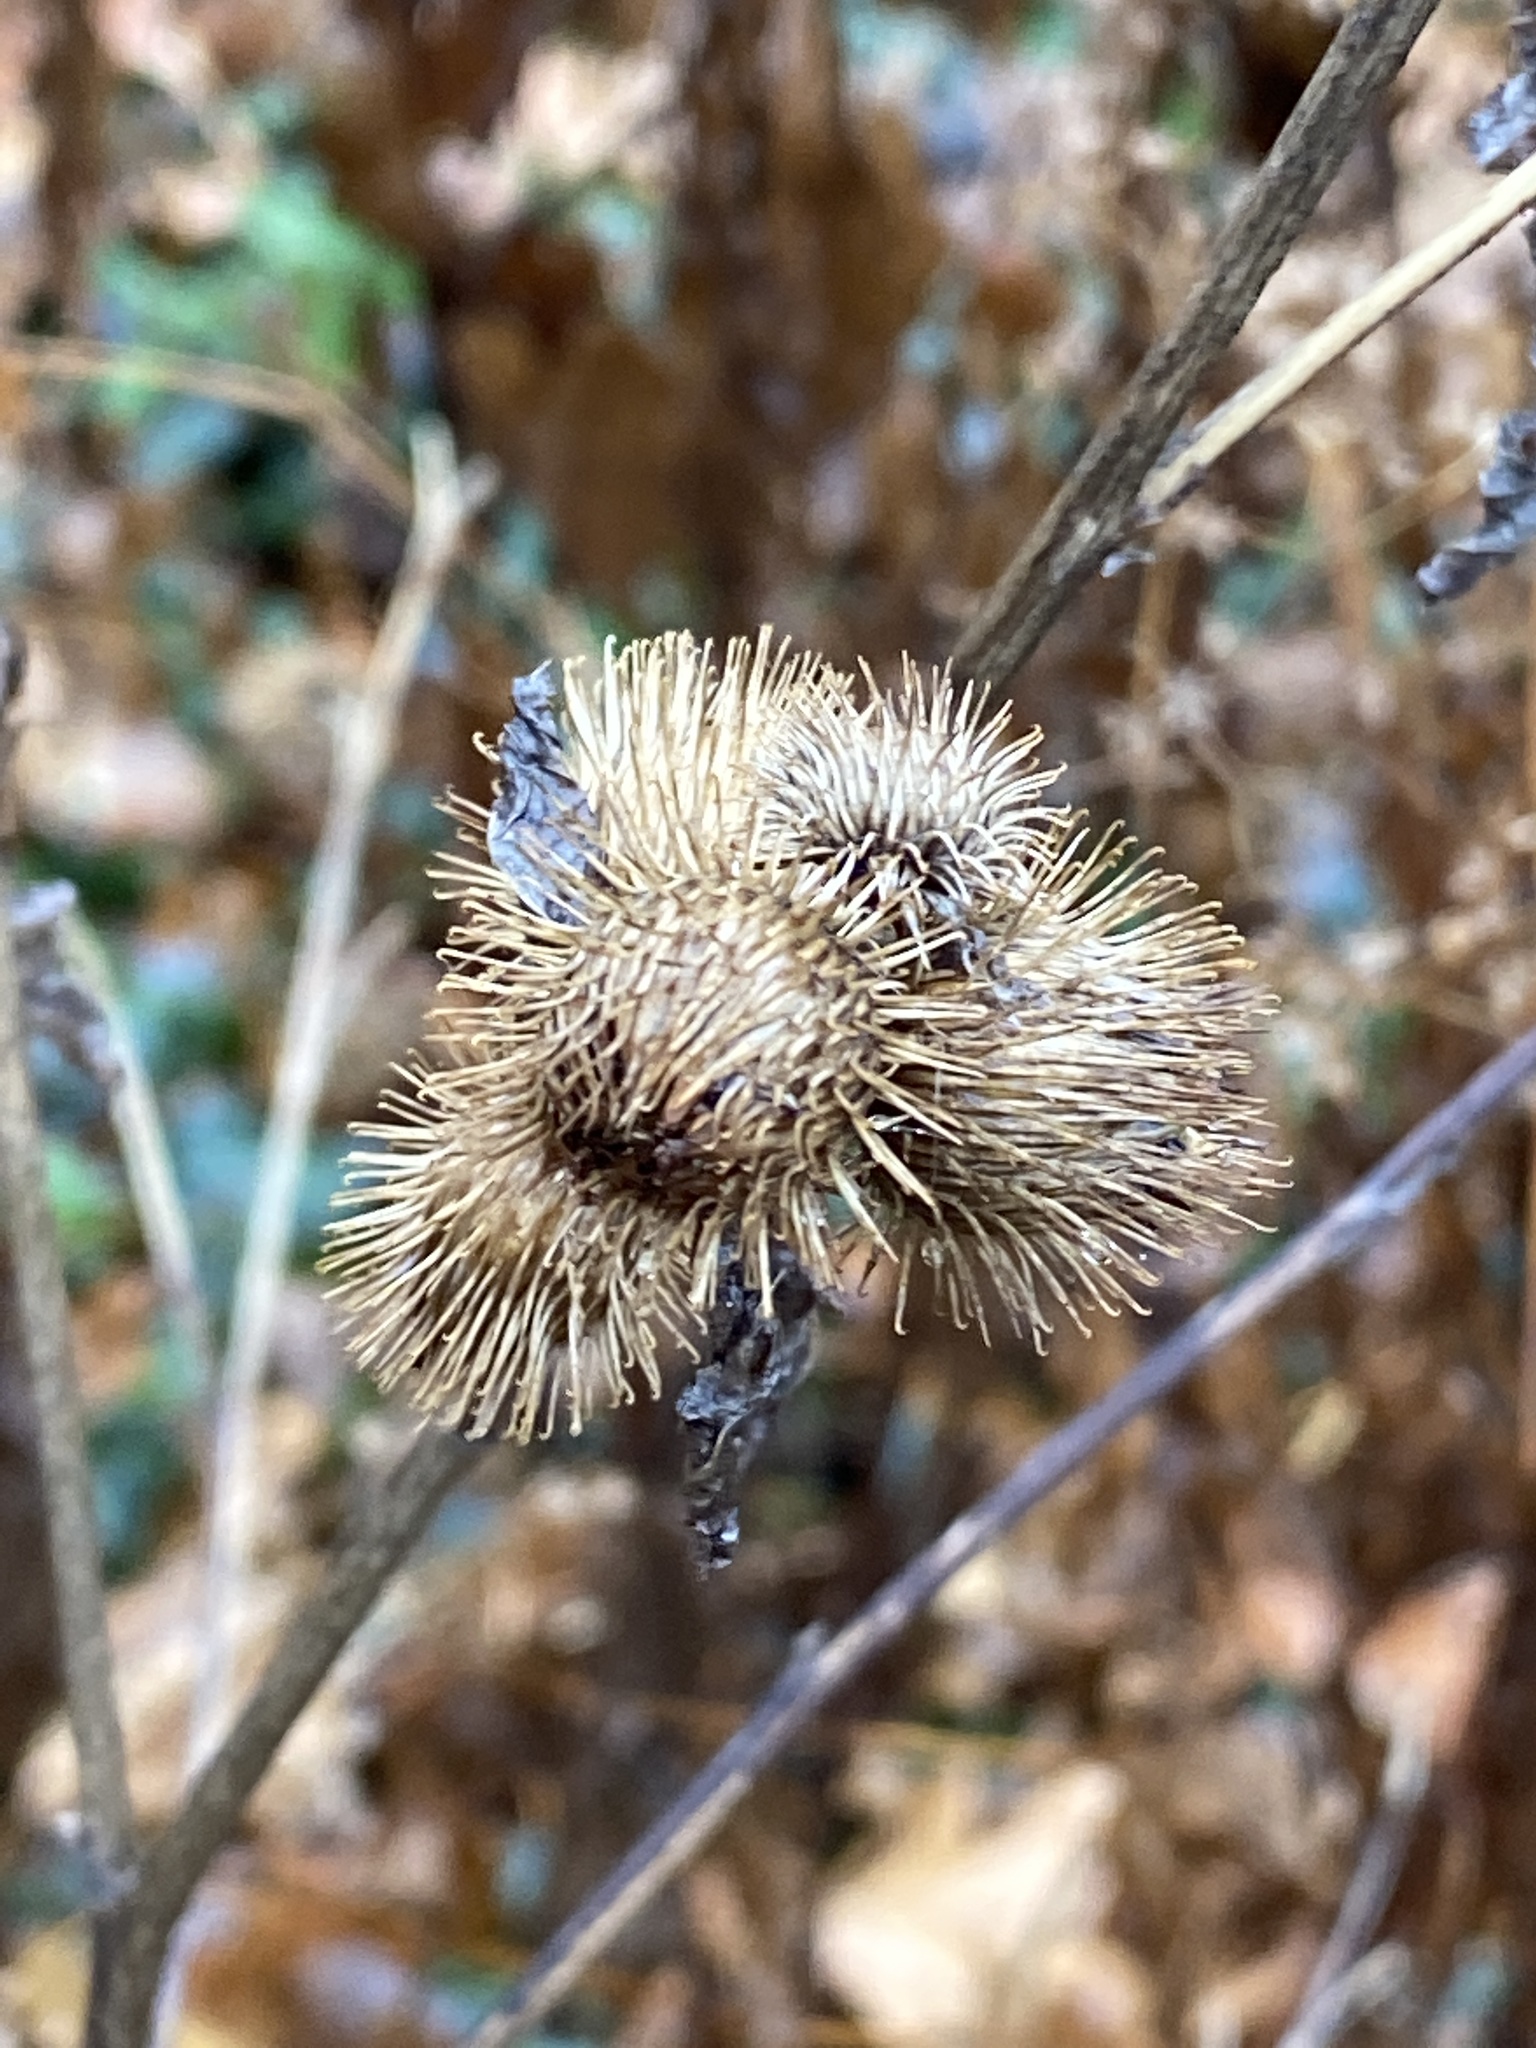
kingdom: Plantae
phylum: Tracheophyta
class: Magnoliopsida
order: Asterales
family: Asteraceae
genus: Arctium
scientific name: Arctium minus
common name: Lesser burdock
